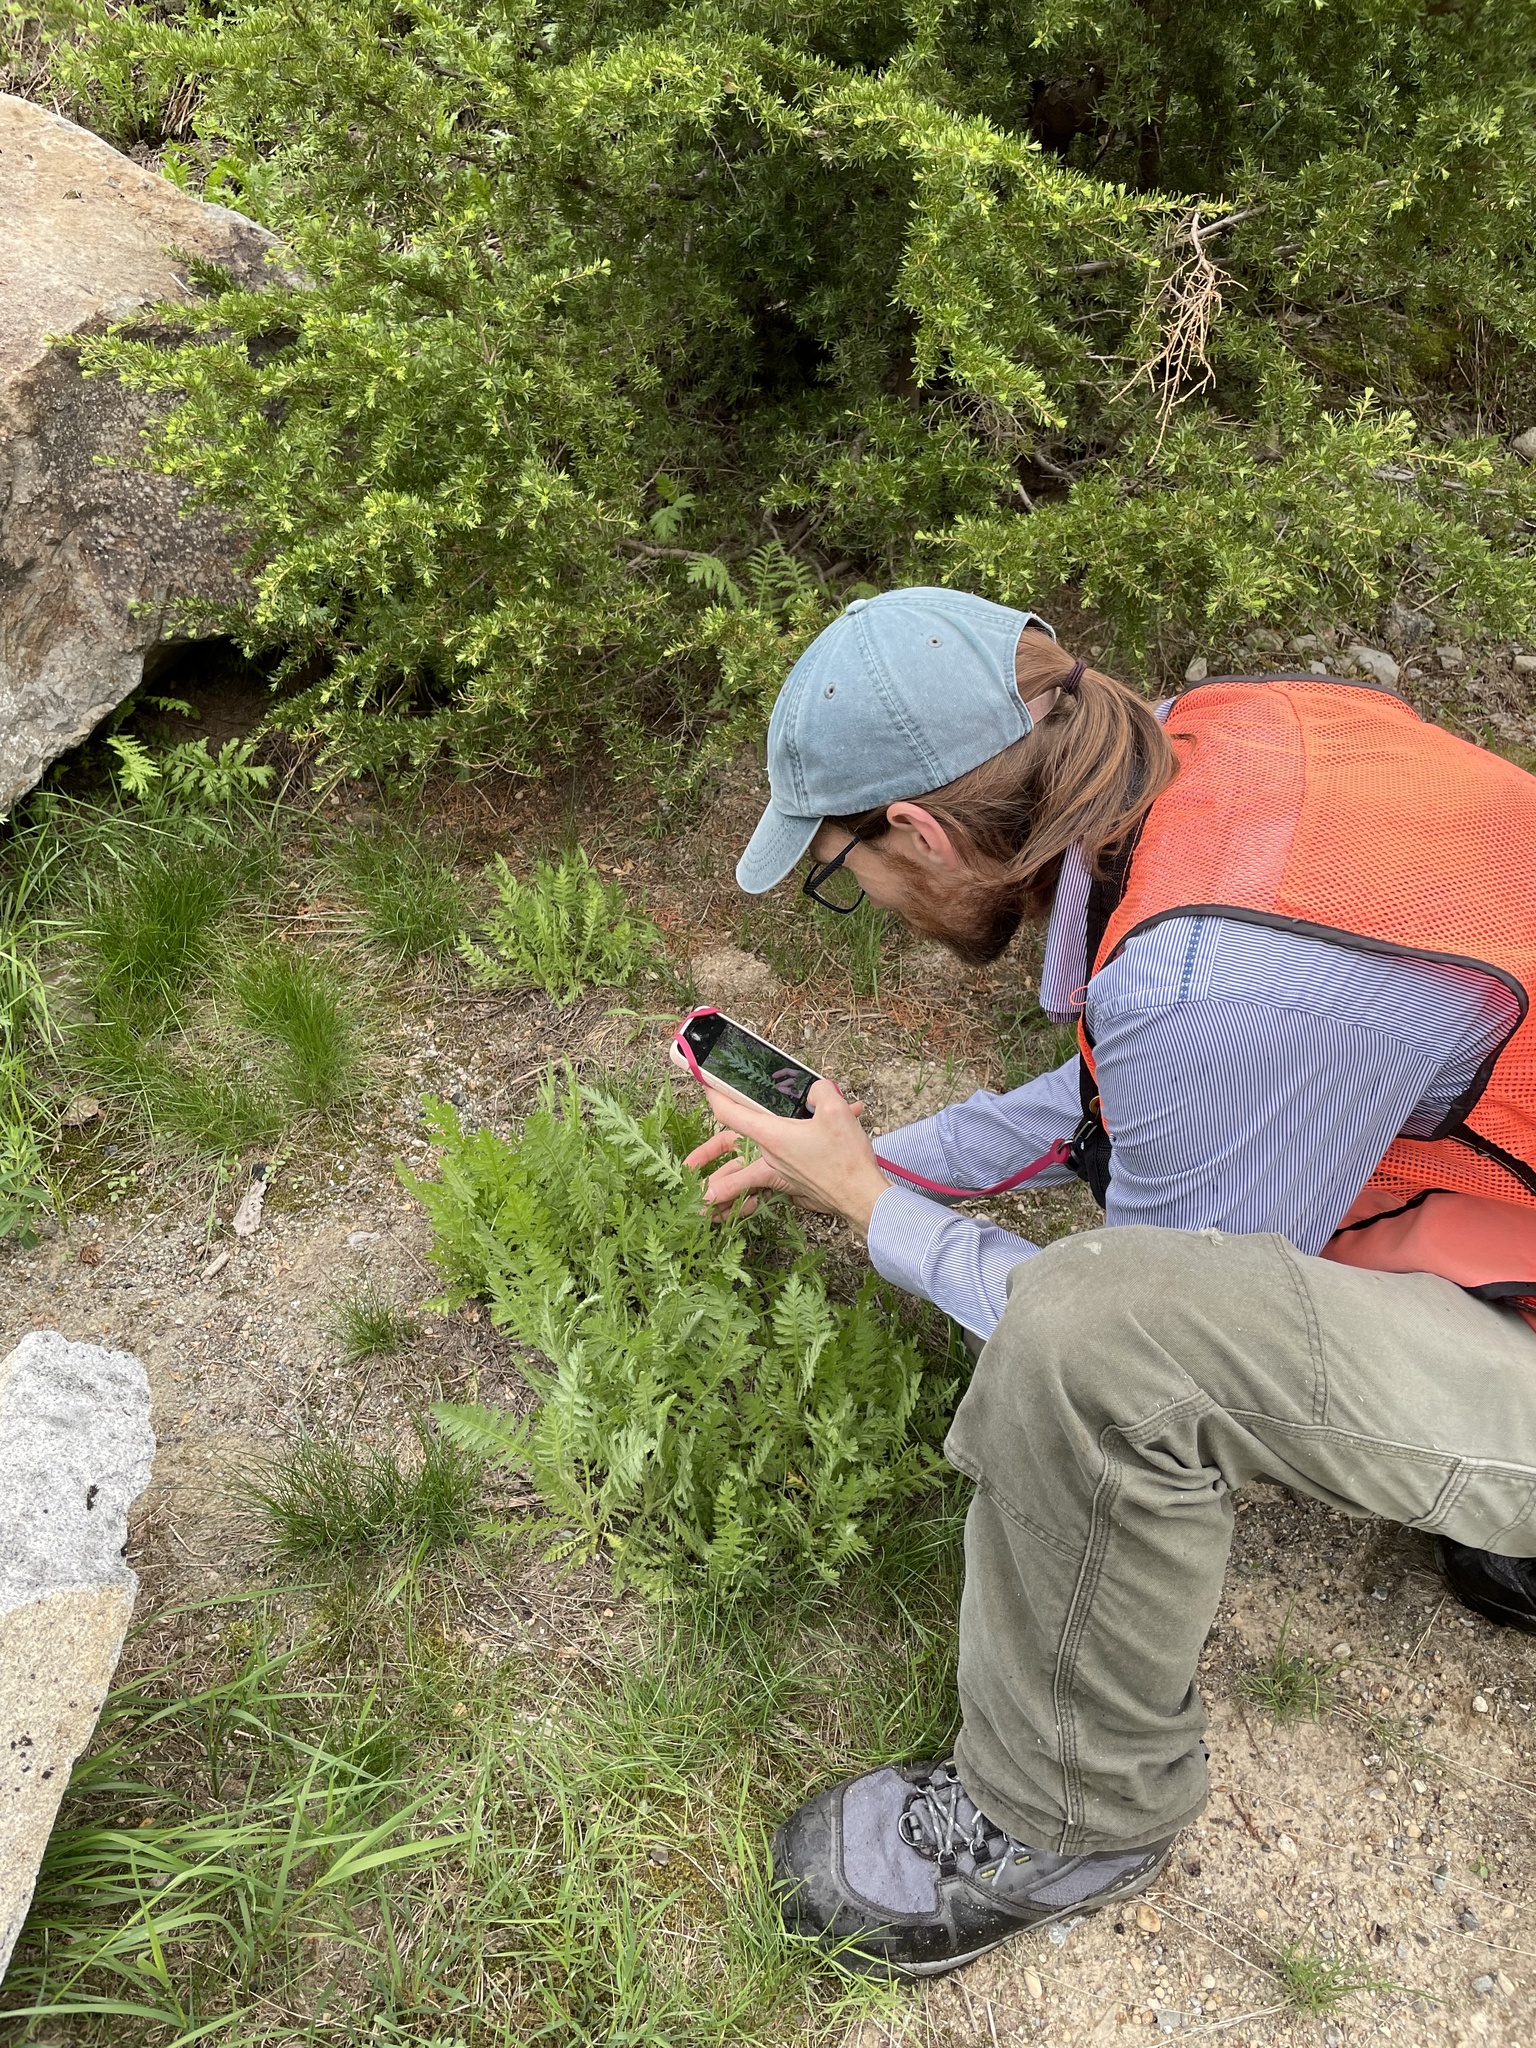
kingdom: Plantae
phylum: Tracheophyta
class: Magnoliopsida
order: Asterales
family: Asteraceae
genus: Achillea
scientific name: Achillea filipendulina
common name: Fernleaf yarrow
